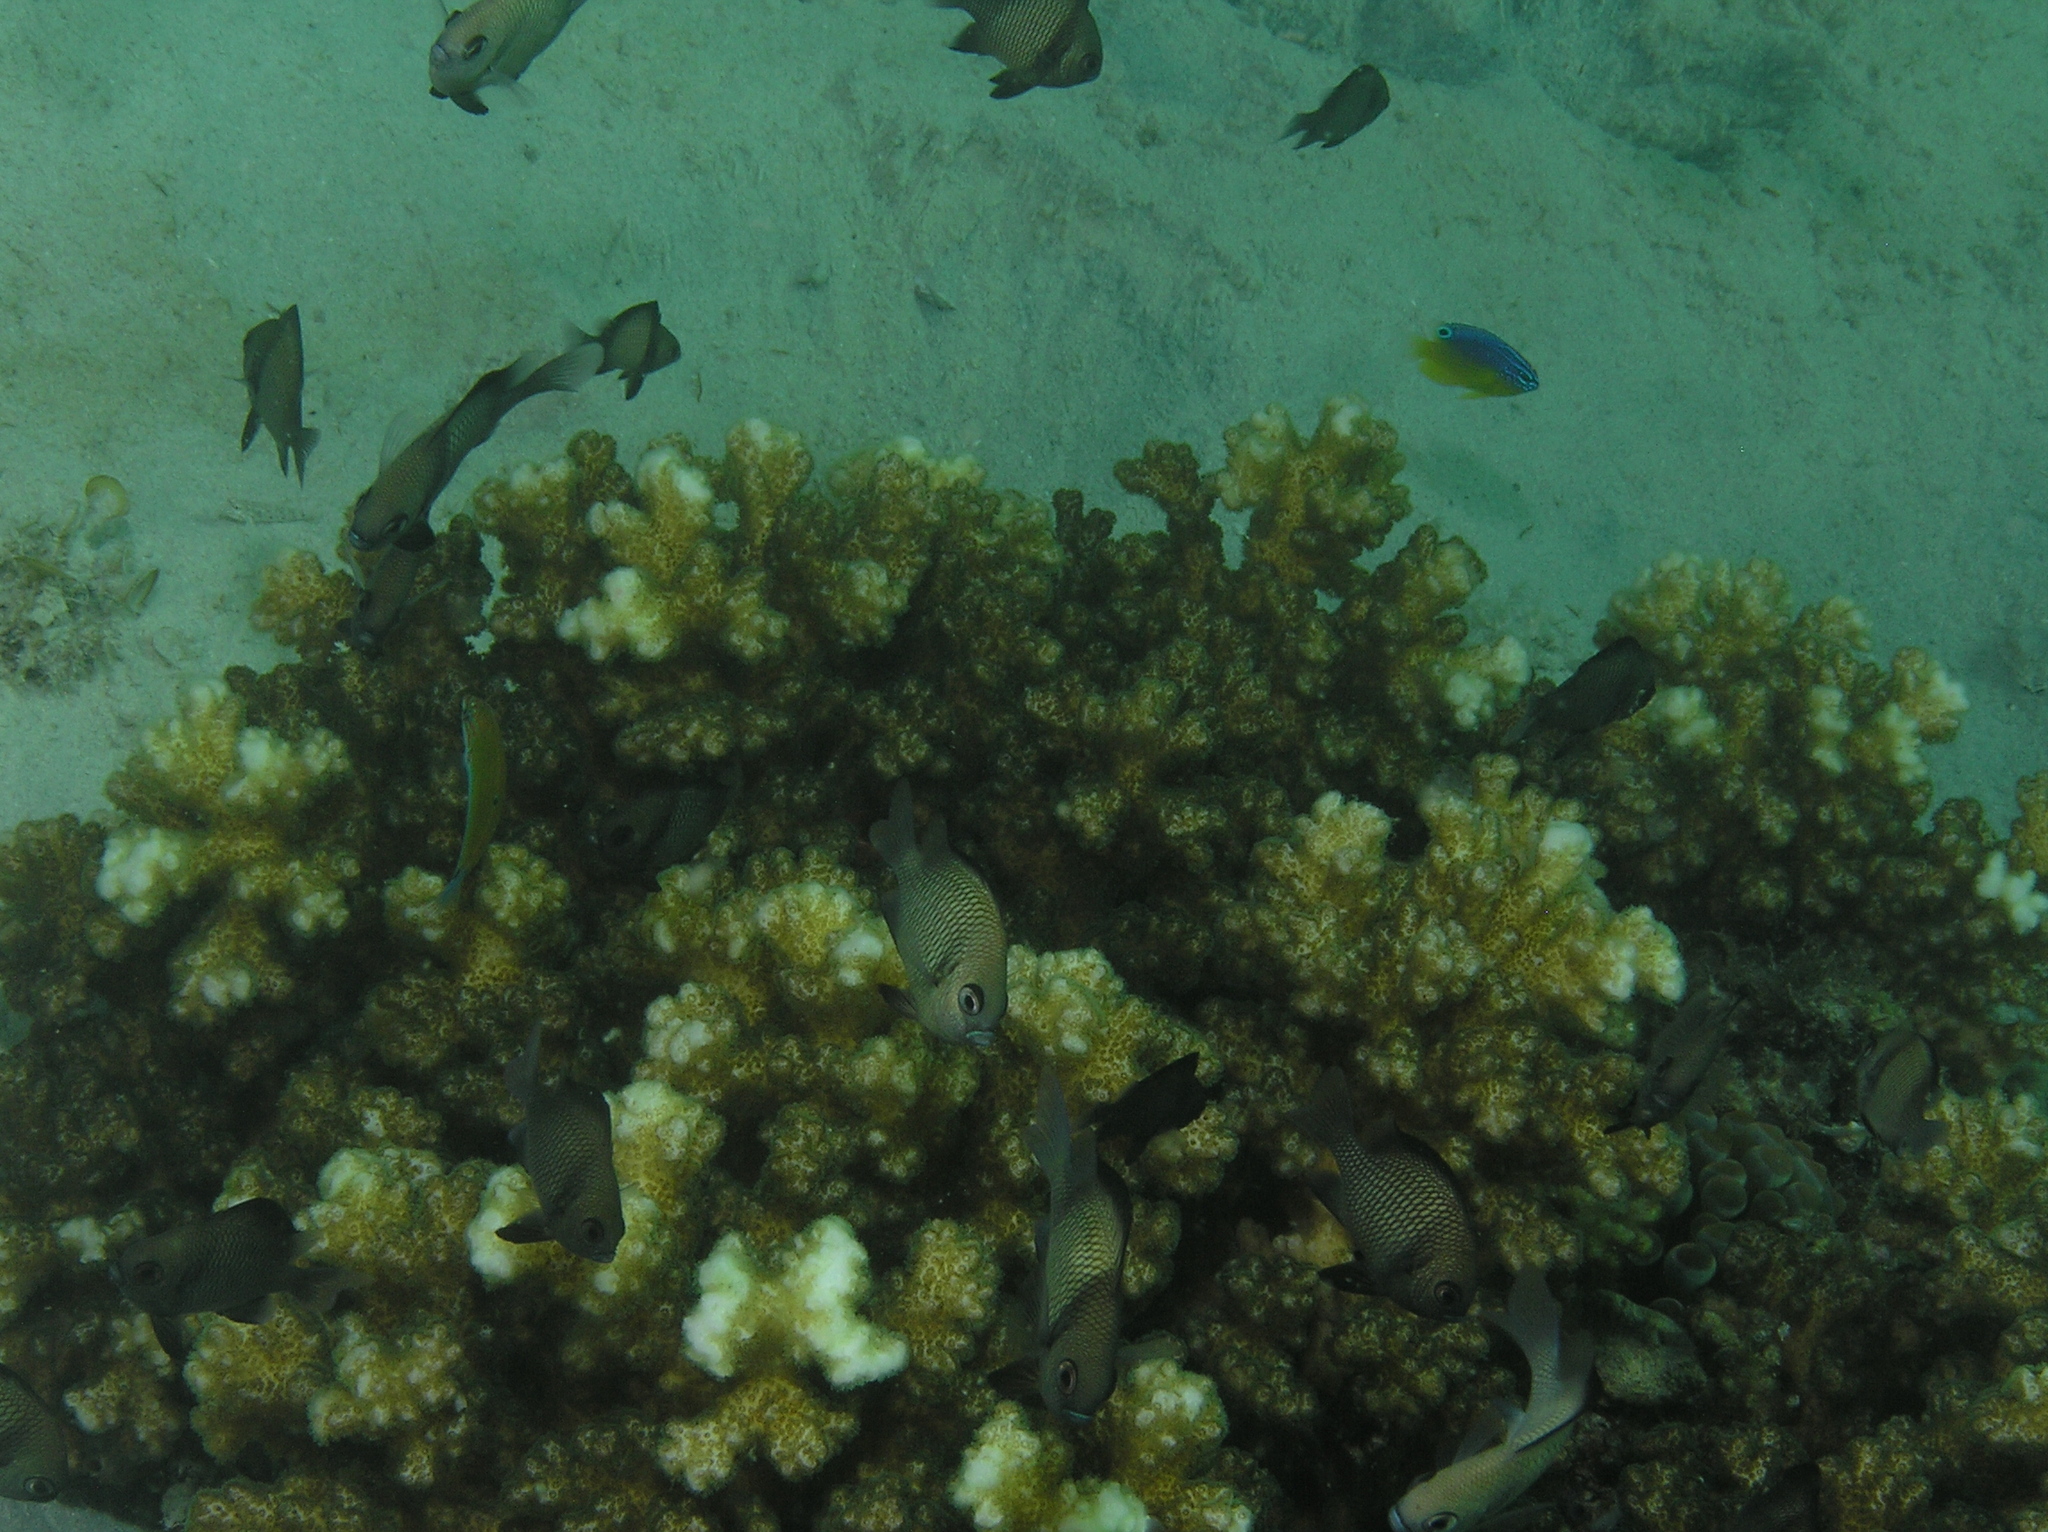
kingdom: Animalia
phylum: Chordata
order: Perciformes
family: Pomacentridae
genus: Dascyllus
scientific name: Dascyllus reticulatus
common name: Reticulated dascyllus
